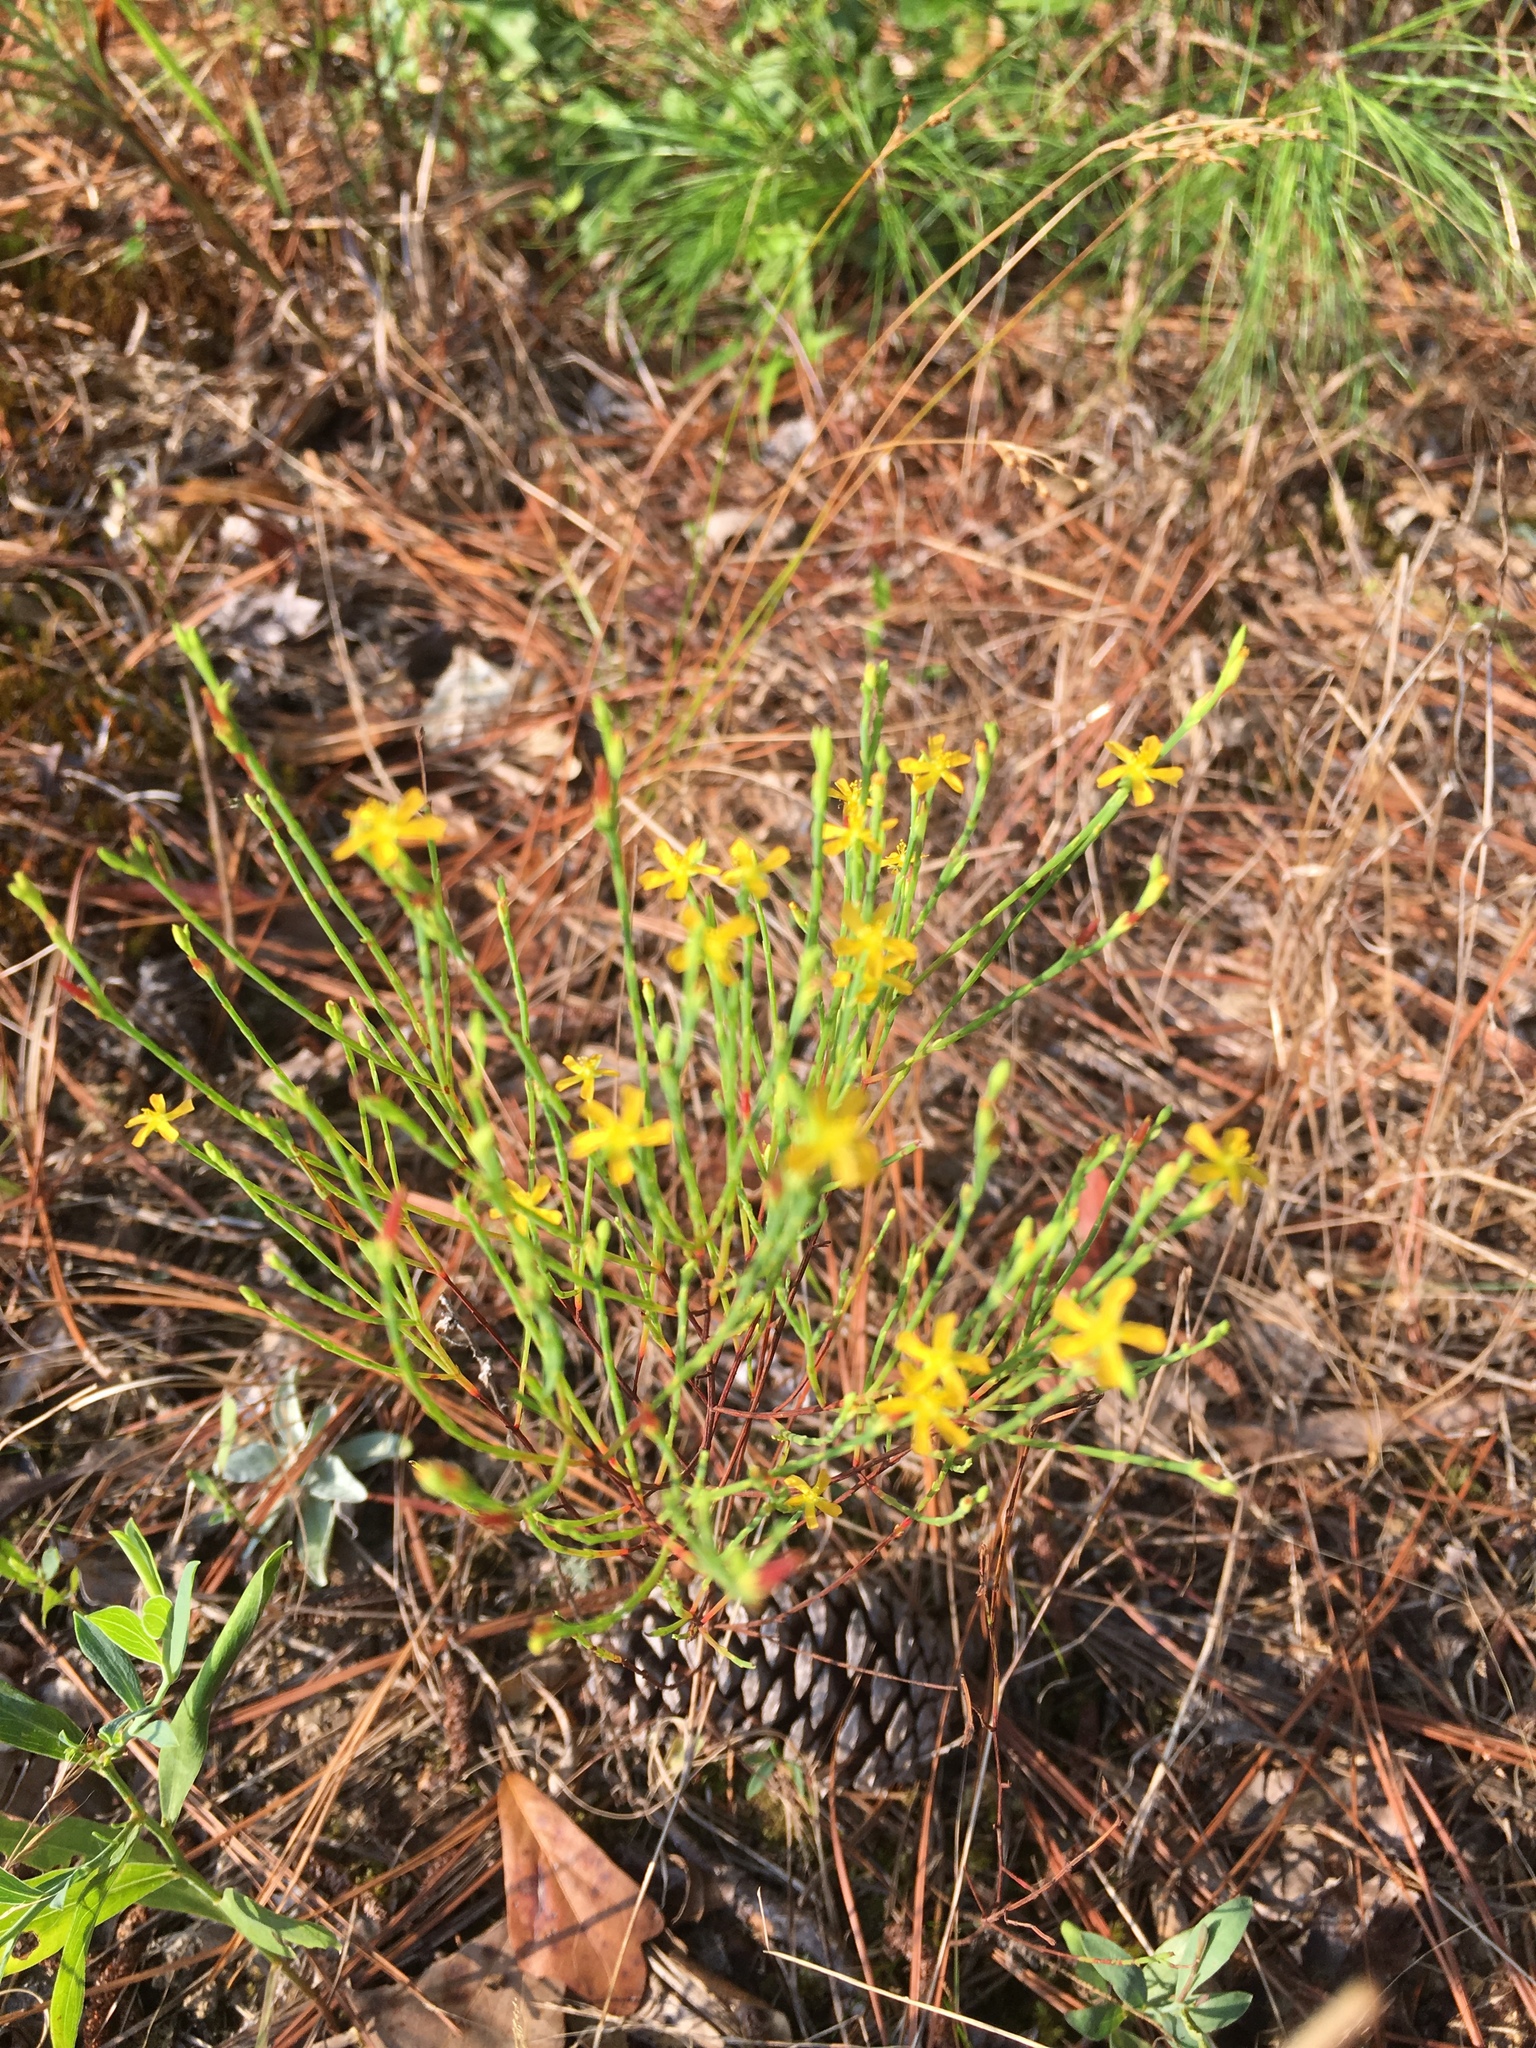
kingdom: Plantae
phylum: Tracheophyta
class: Magnoliopsida
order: Malpighiales
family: Hypericaceae
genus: Hypericum
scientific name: Hypericum gentianoides
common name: Gentian-leaved st. john's-wort
